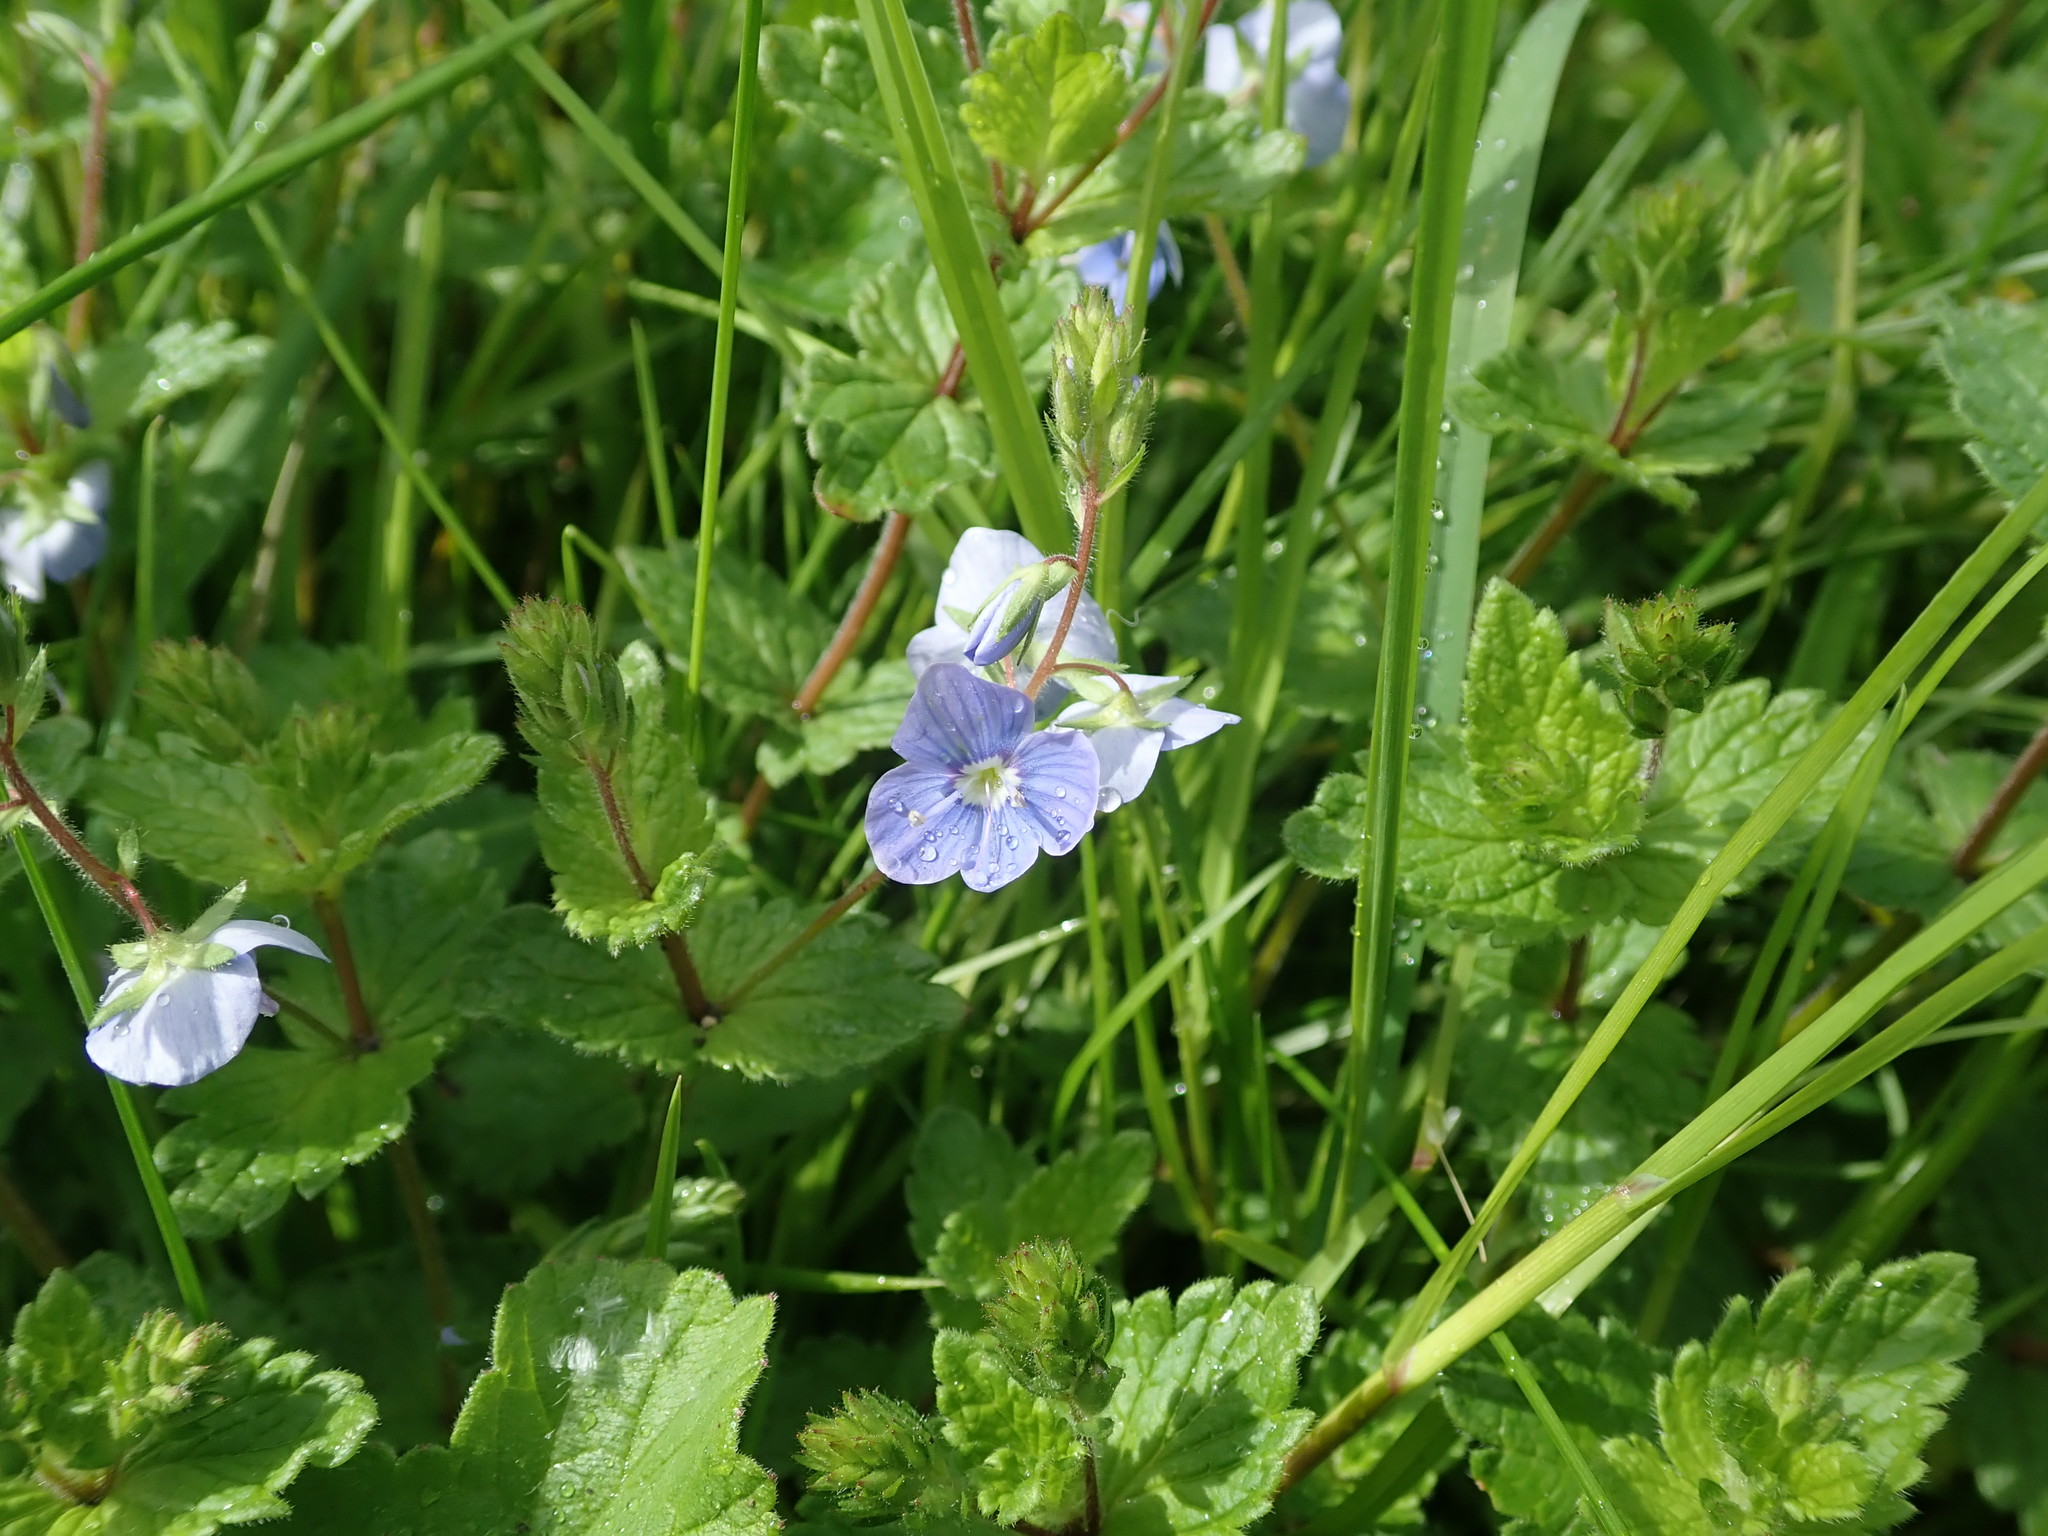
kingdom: Plantae
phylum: Tracheophyta
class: Magnoliopsida
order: Lamiales
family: Plantaginaceae
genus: Veronica
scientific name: Veronica chamaedrys
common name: Germander speedwell
